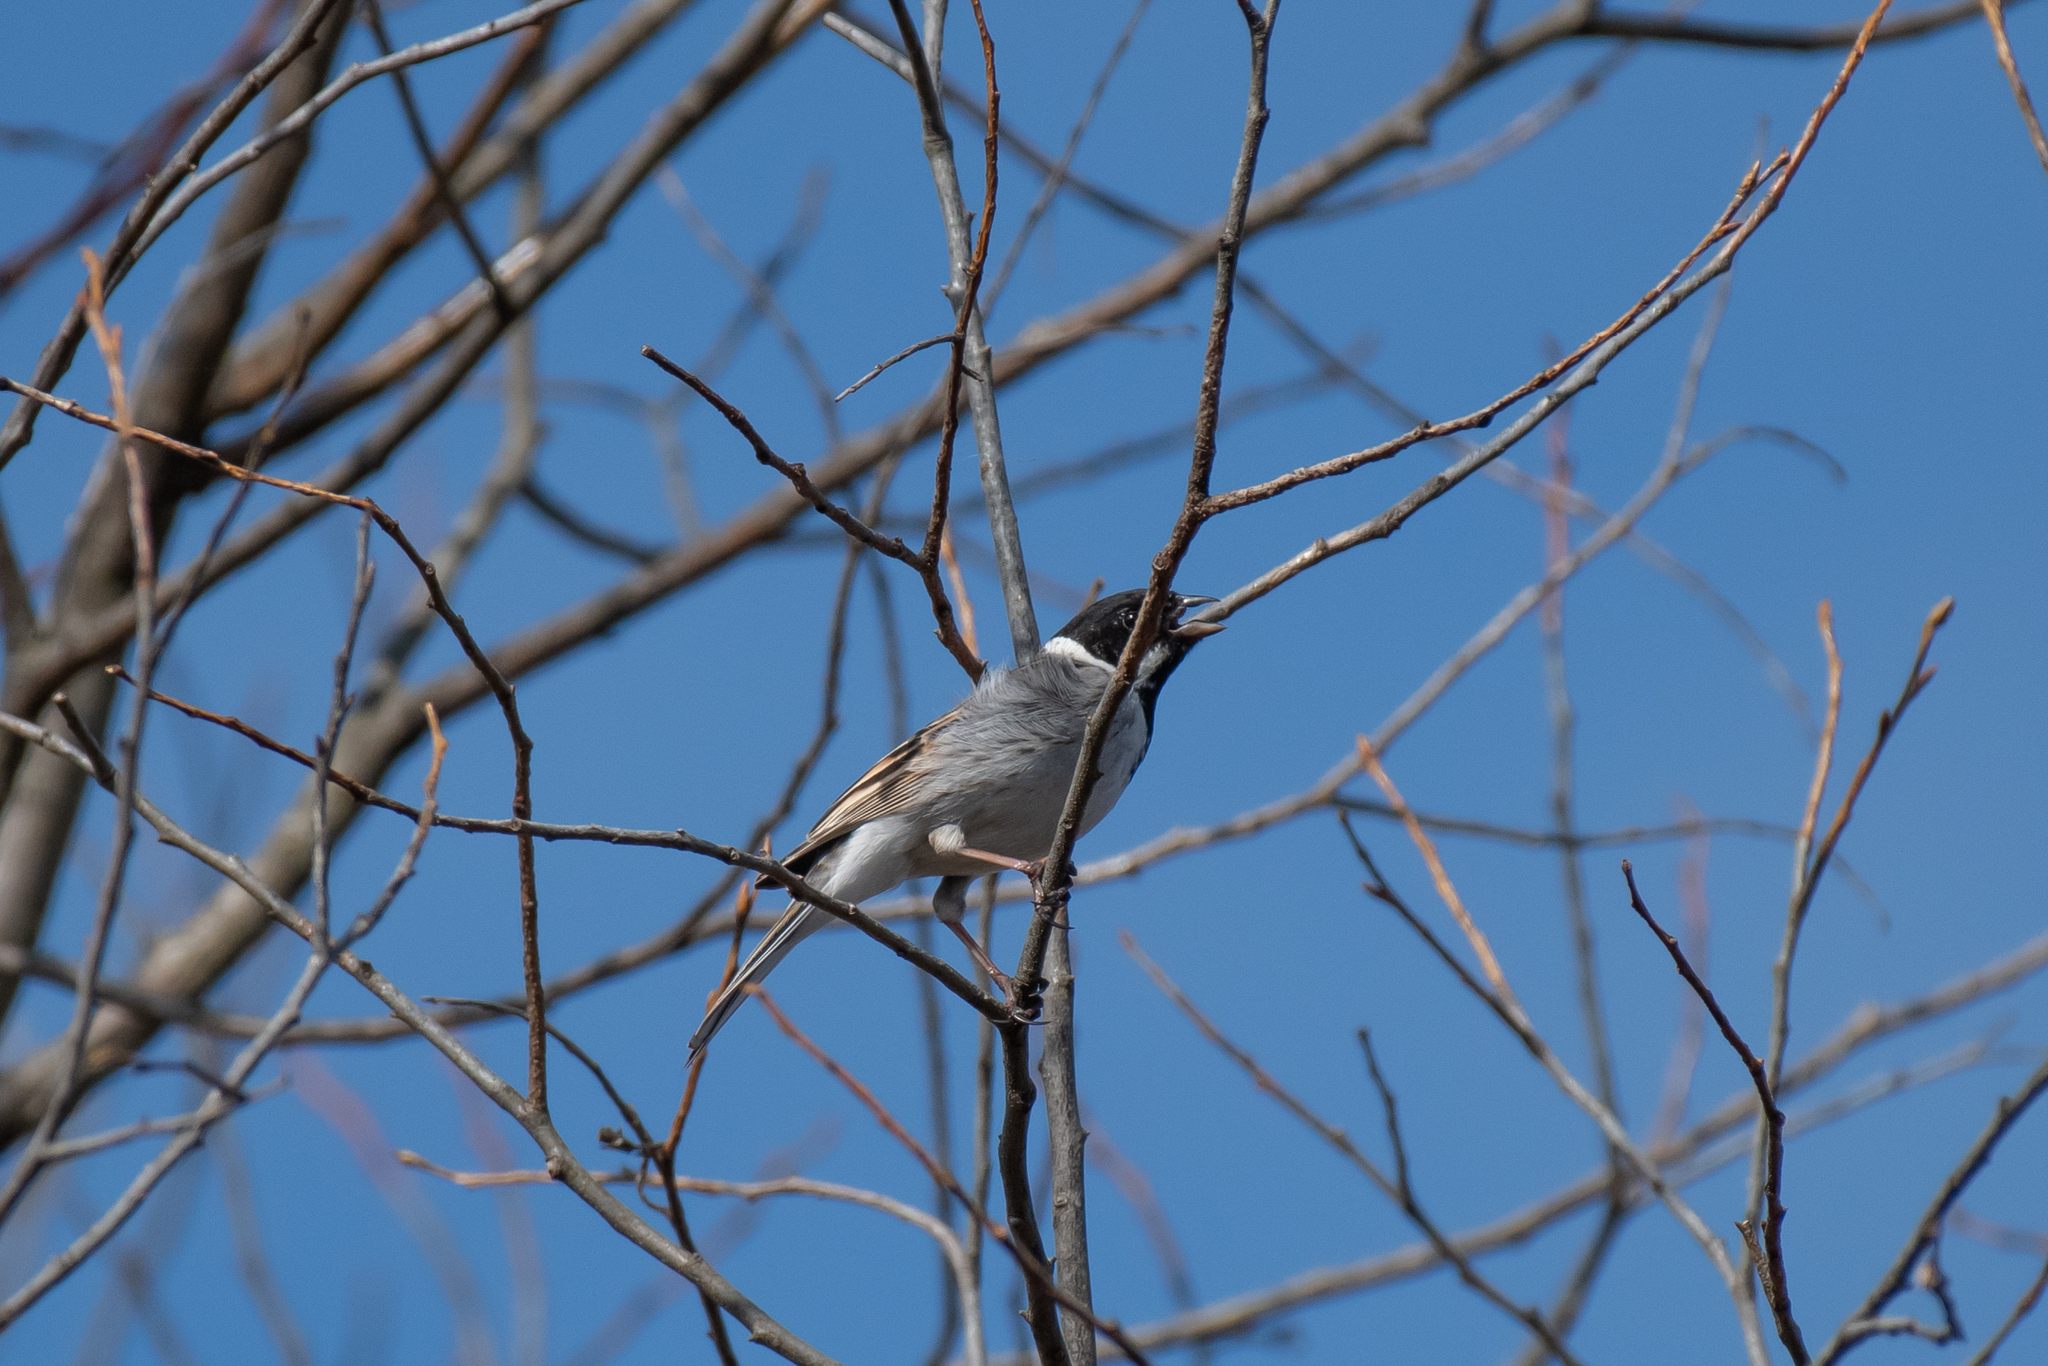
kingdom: Animalia
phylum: Chordata
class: Aves
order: Passeriformes
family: Emberizidae
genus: Emberiza
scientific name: Emberiza schoeniclus
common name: Reed bunting
